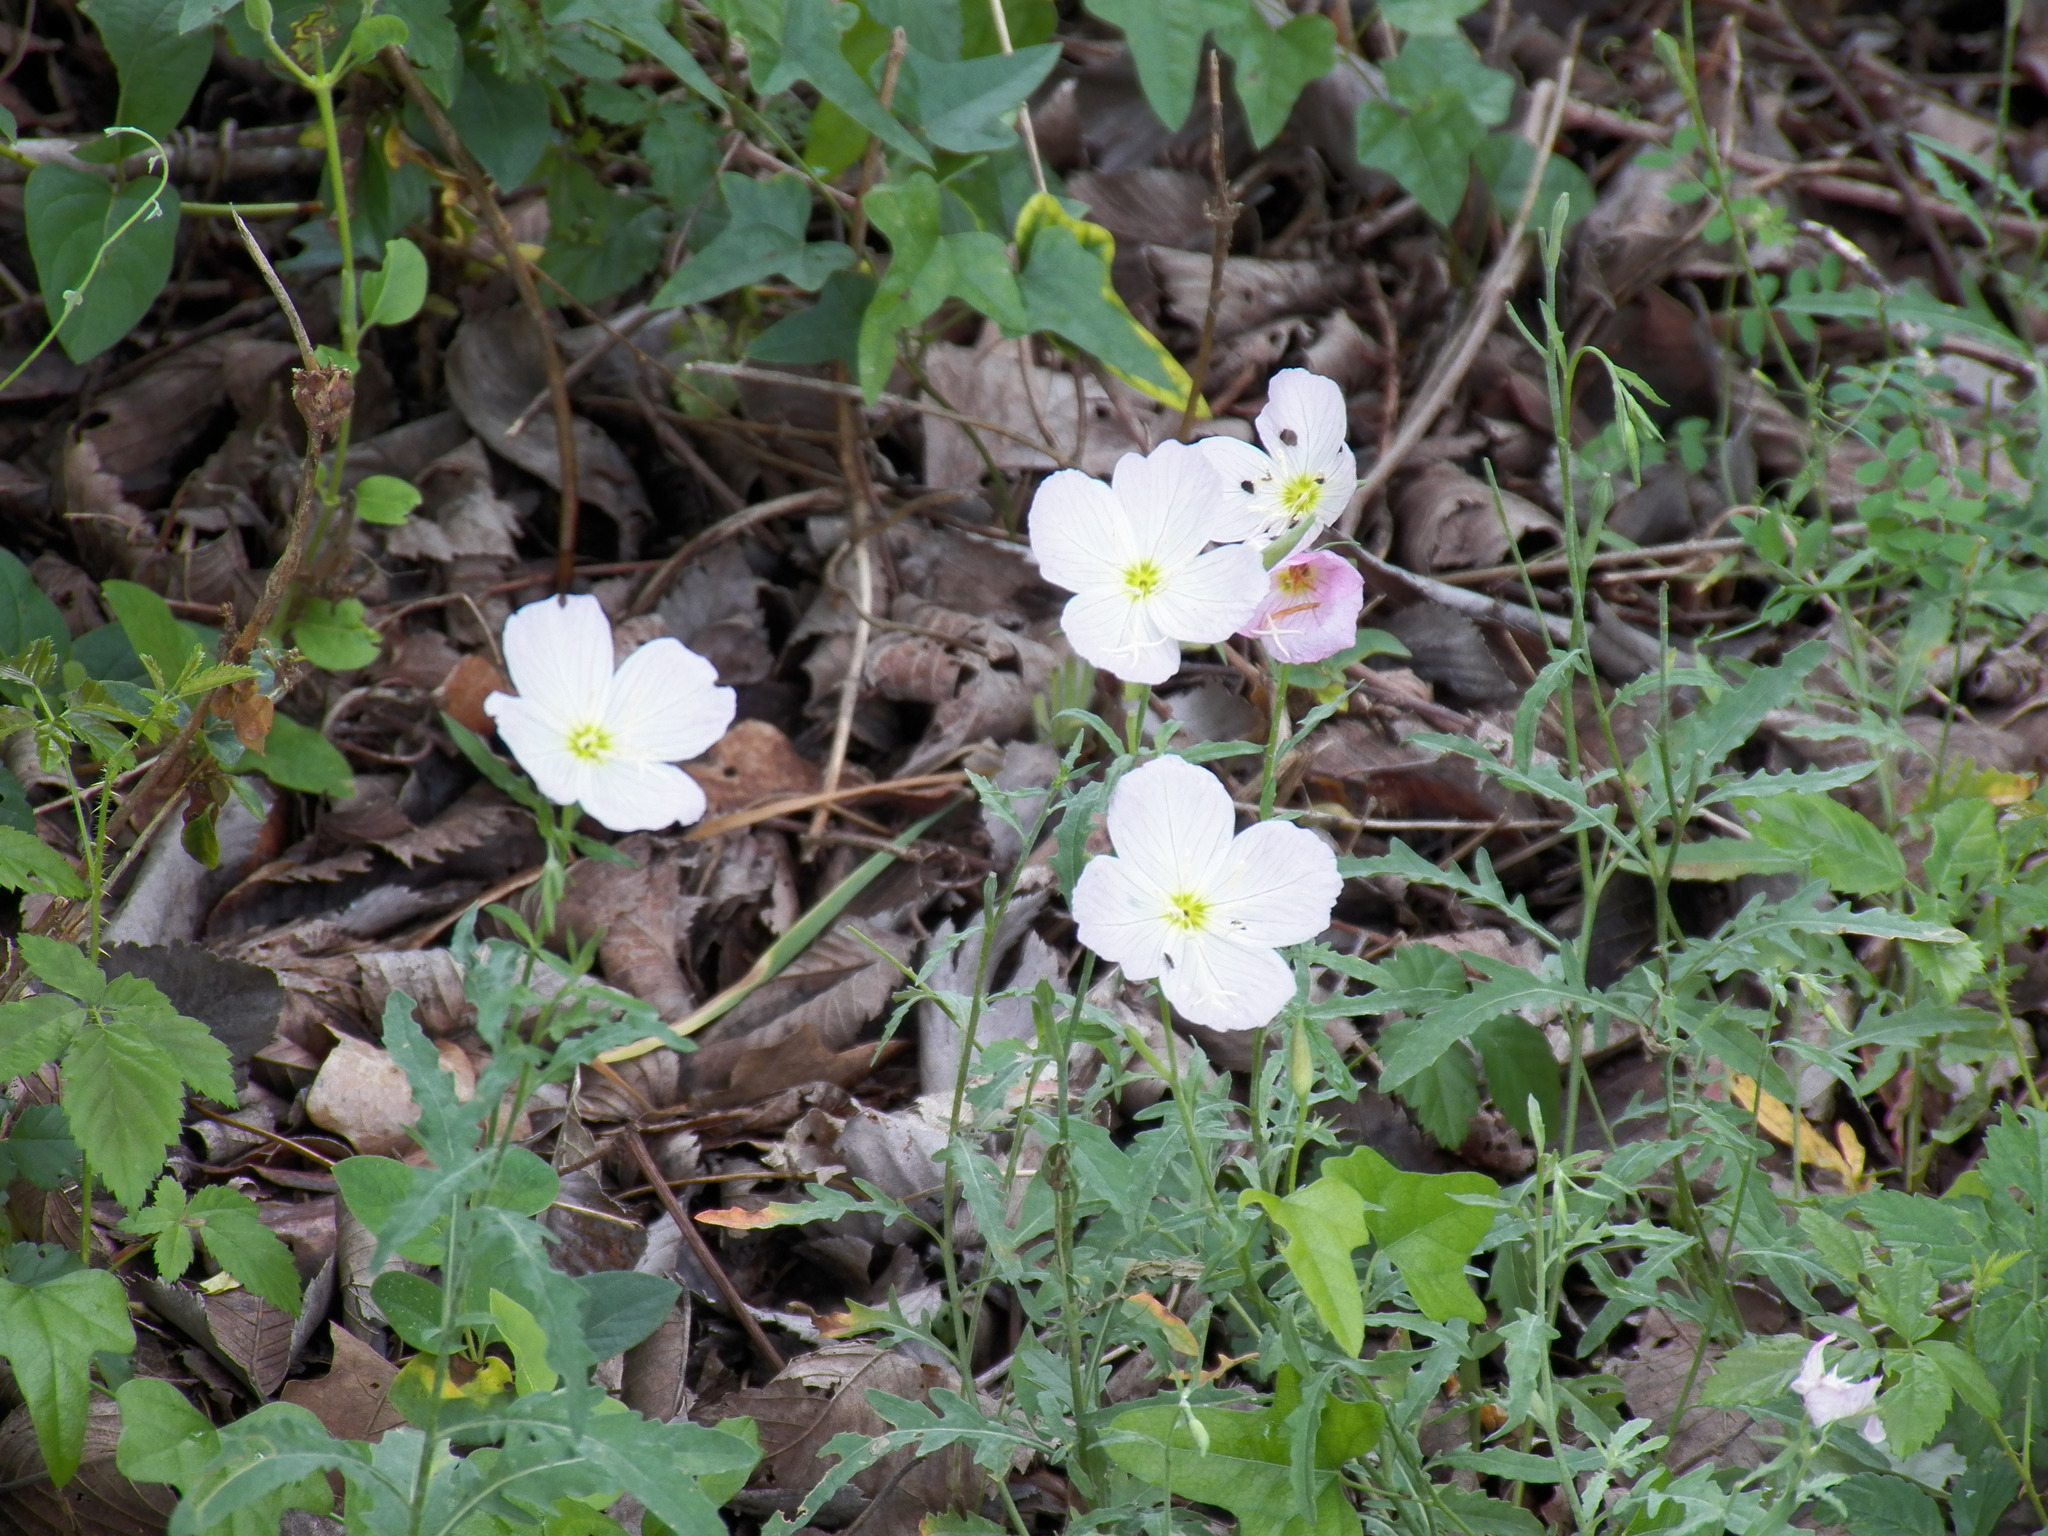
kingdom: Plantae
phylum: Tracheophyta
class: Magnoliopsida
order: Myrtales
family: Onagraceae
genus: Oenothera
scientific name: Oenothera speciosa
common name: White evening-primrose
